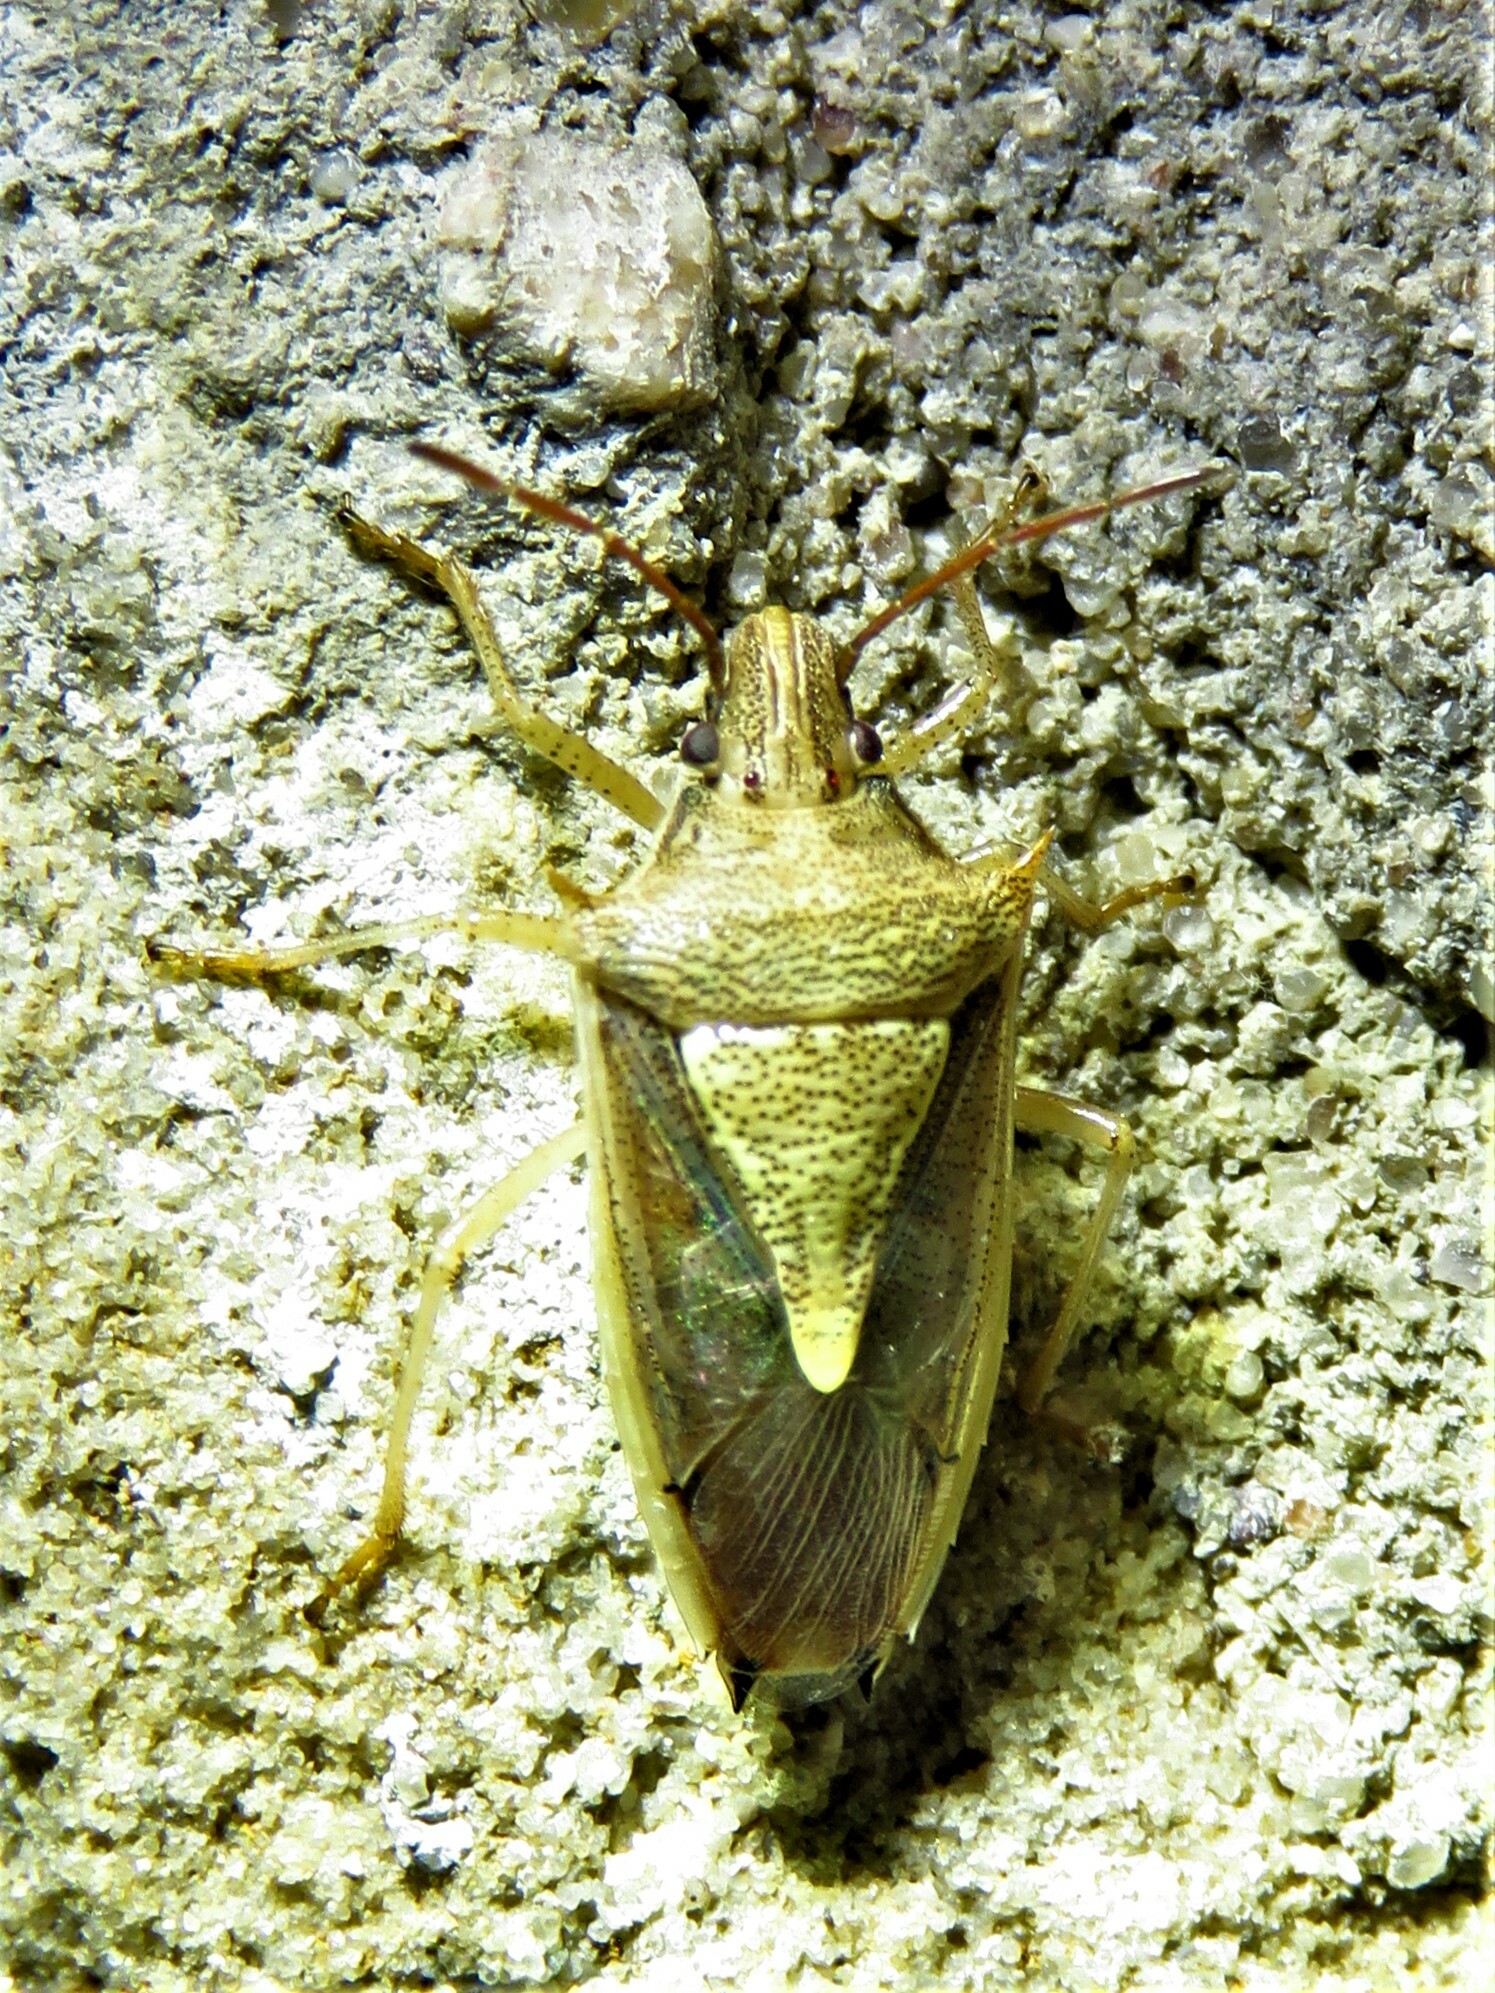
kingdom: Animalia
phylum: Arthropoda
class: Insecta
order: Hemiptera
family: Pentatomidae
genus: Oebalus
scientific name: Oebalus pugnax
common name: Rice stink bug
